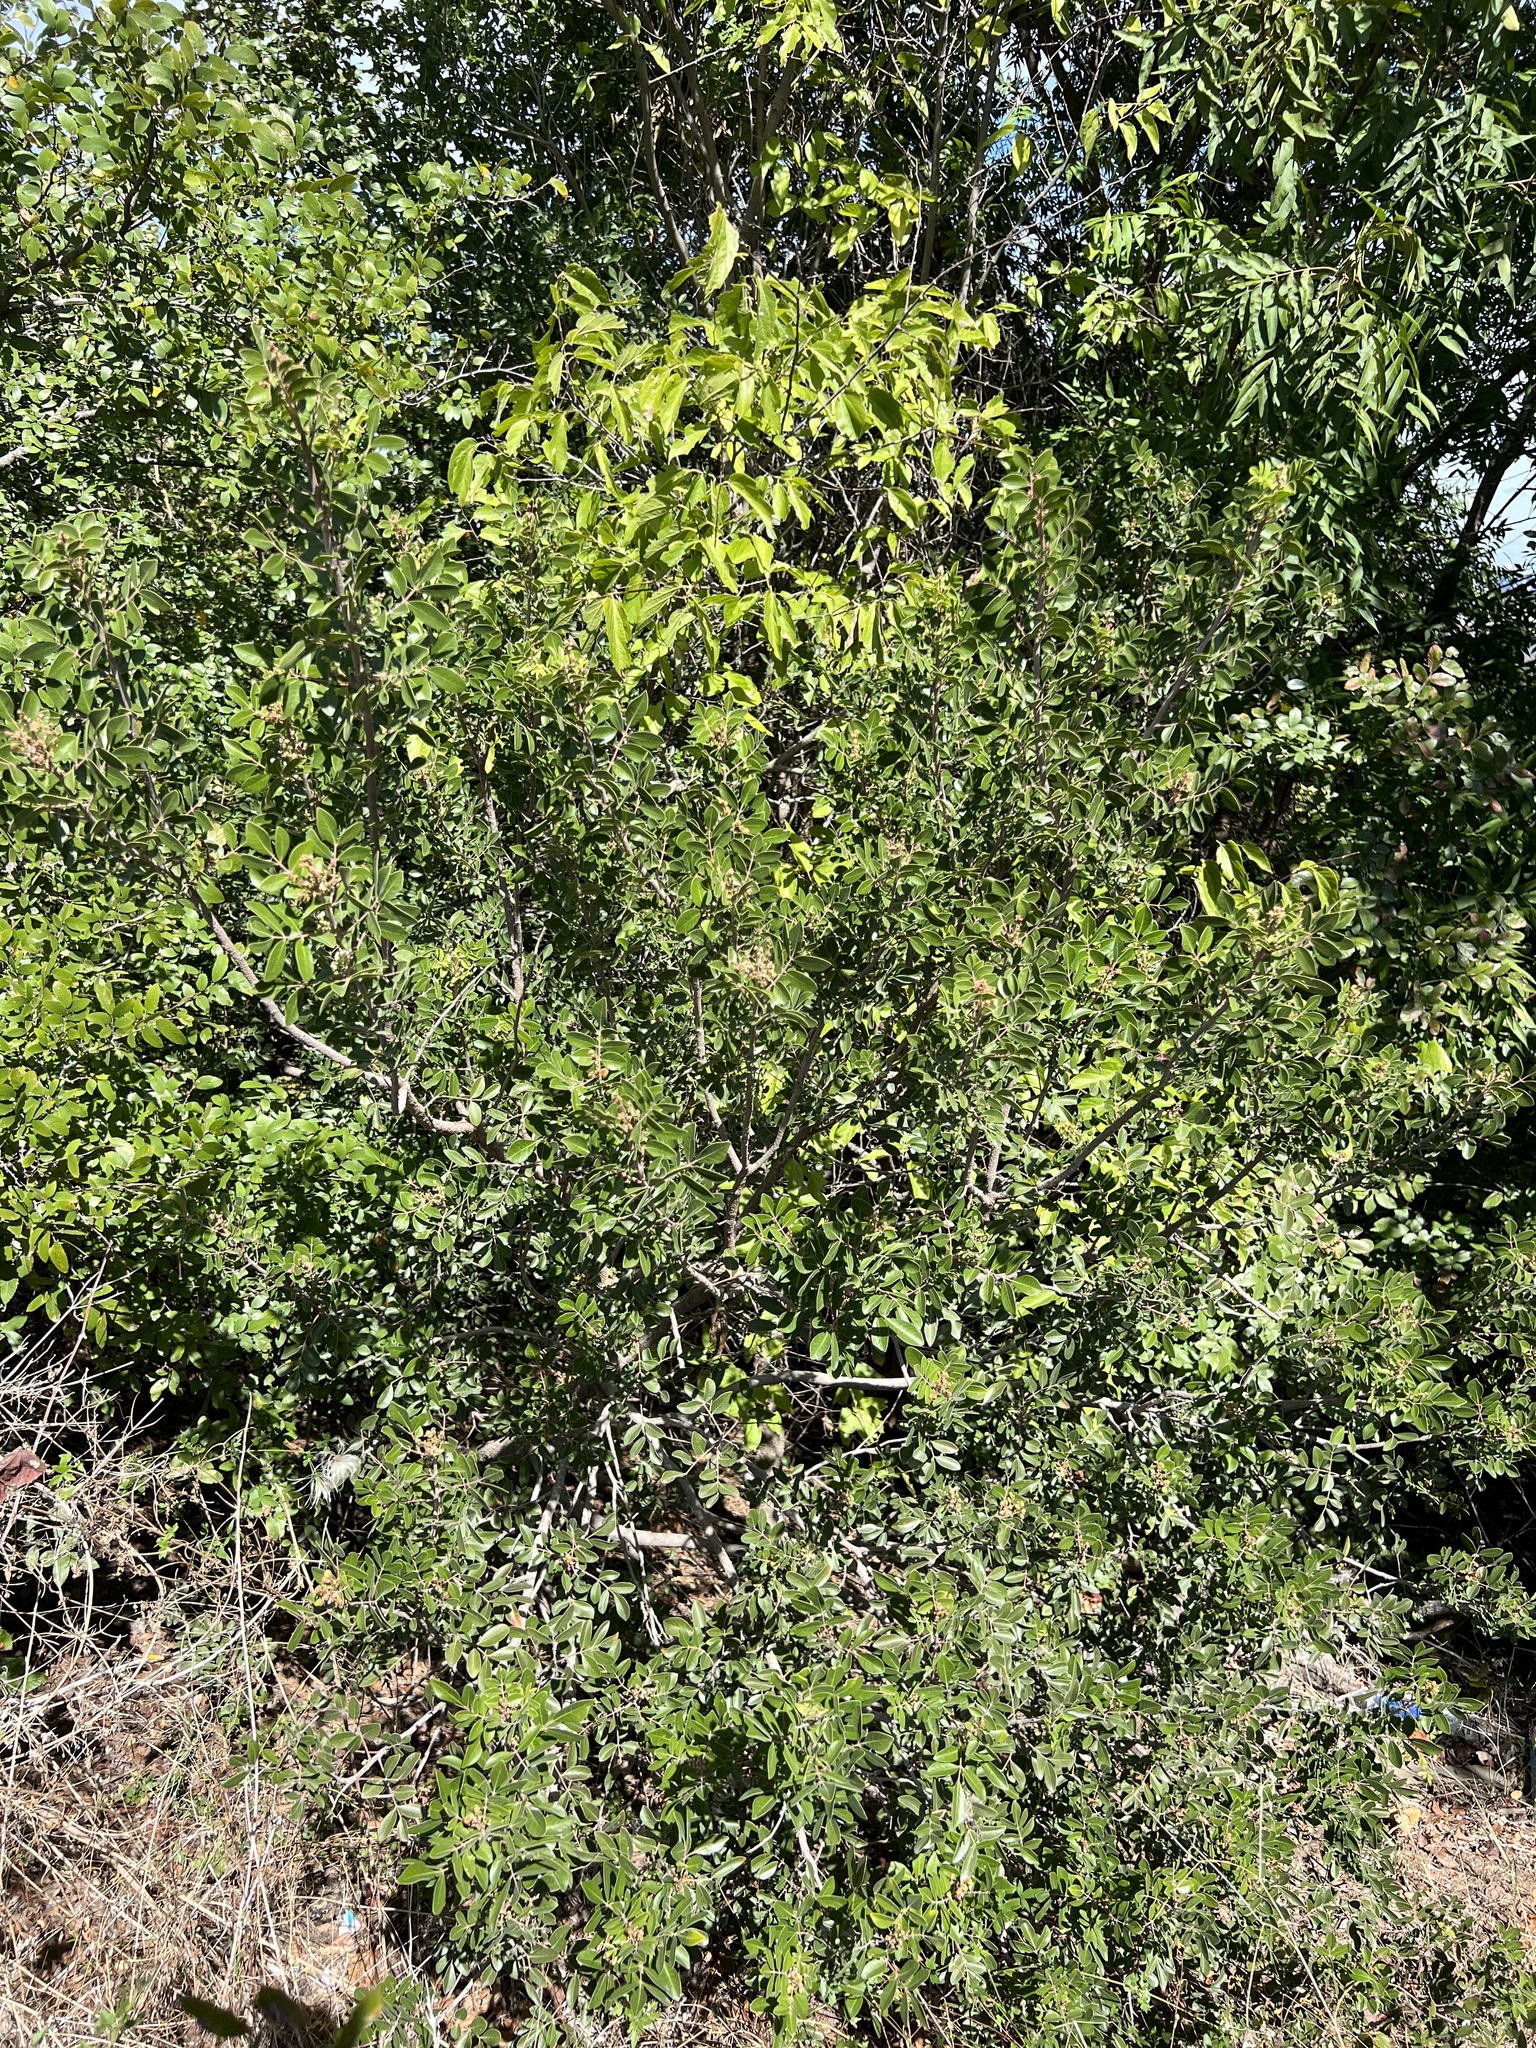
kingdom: Plantae
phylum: Tracheophyta
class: Magnoliopsida
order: Sapindales
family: Anacardiaceae
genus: Rhus
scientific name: Rhus virens
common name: Evergreen sumac
